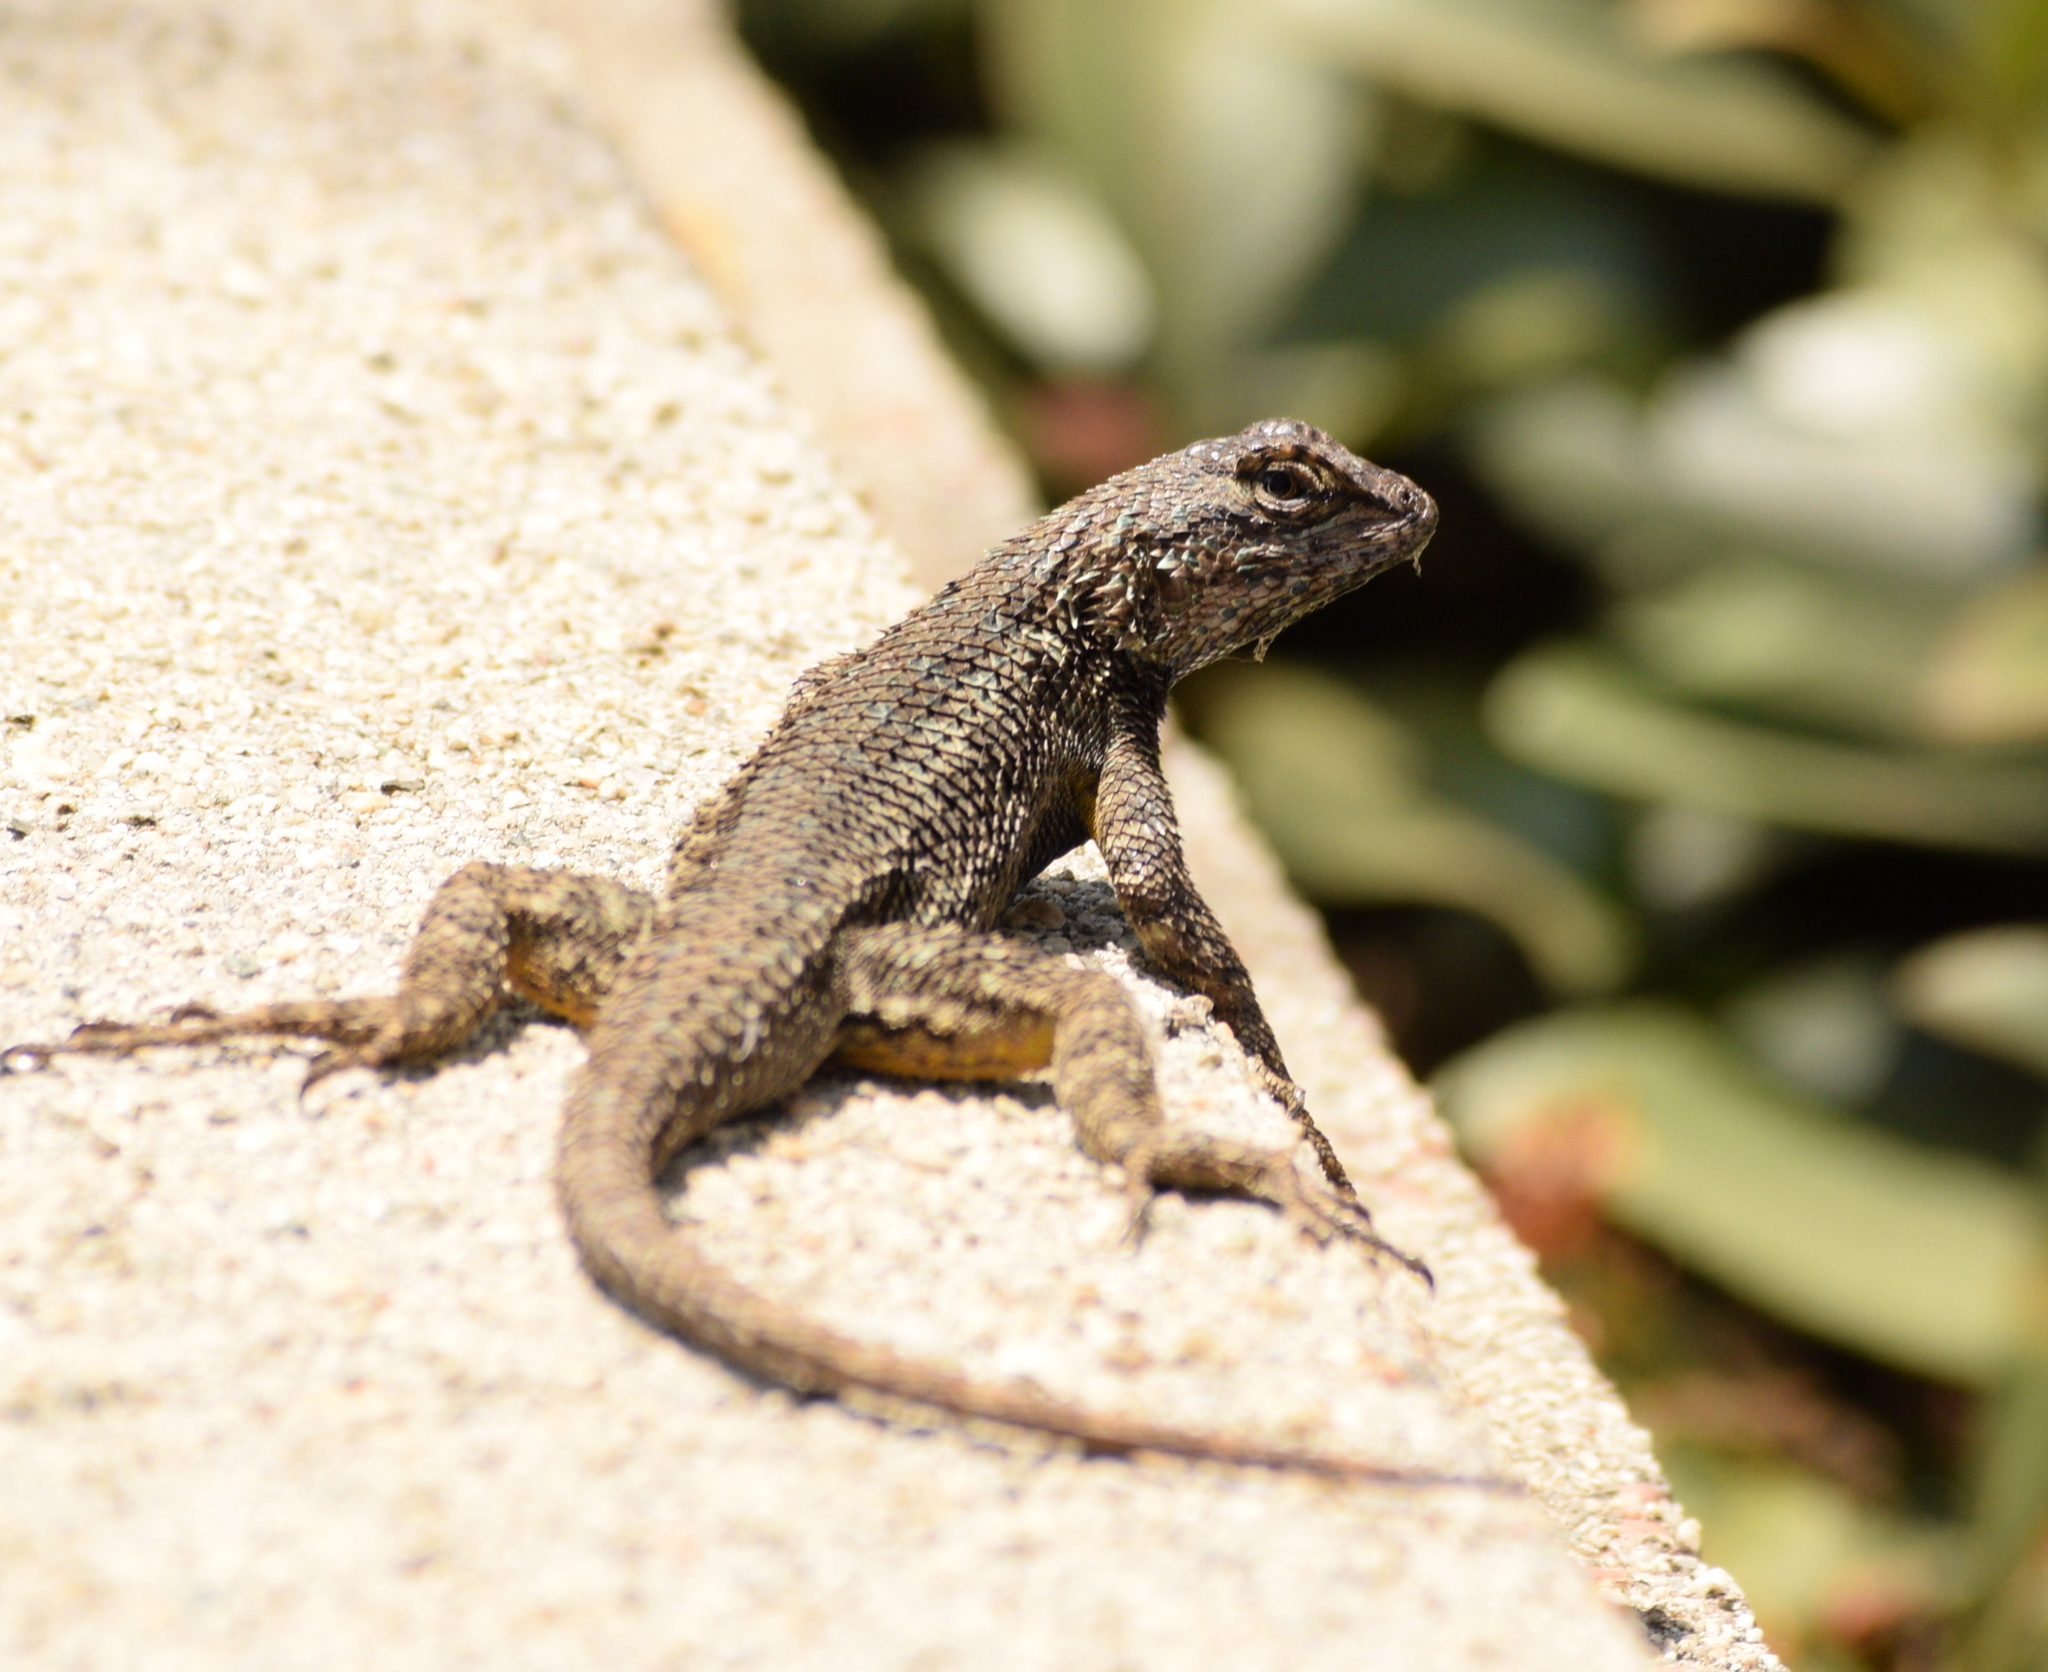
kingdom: Animalia
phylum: Chordata
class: Squamata
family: Phrynosomatidae
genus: Sceloporus
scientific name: Sceloporus occidentalis
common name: Western fence lizard
